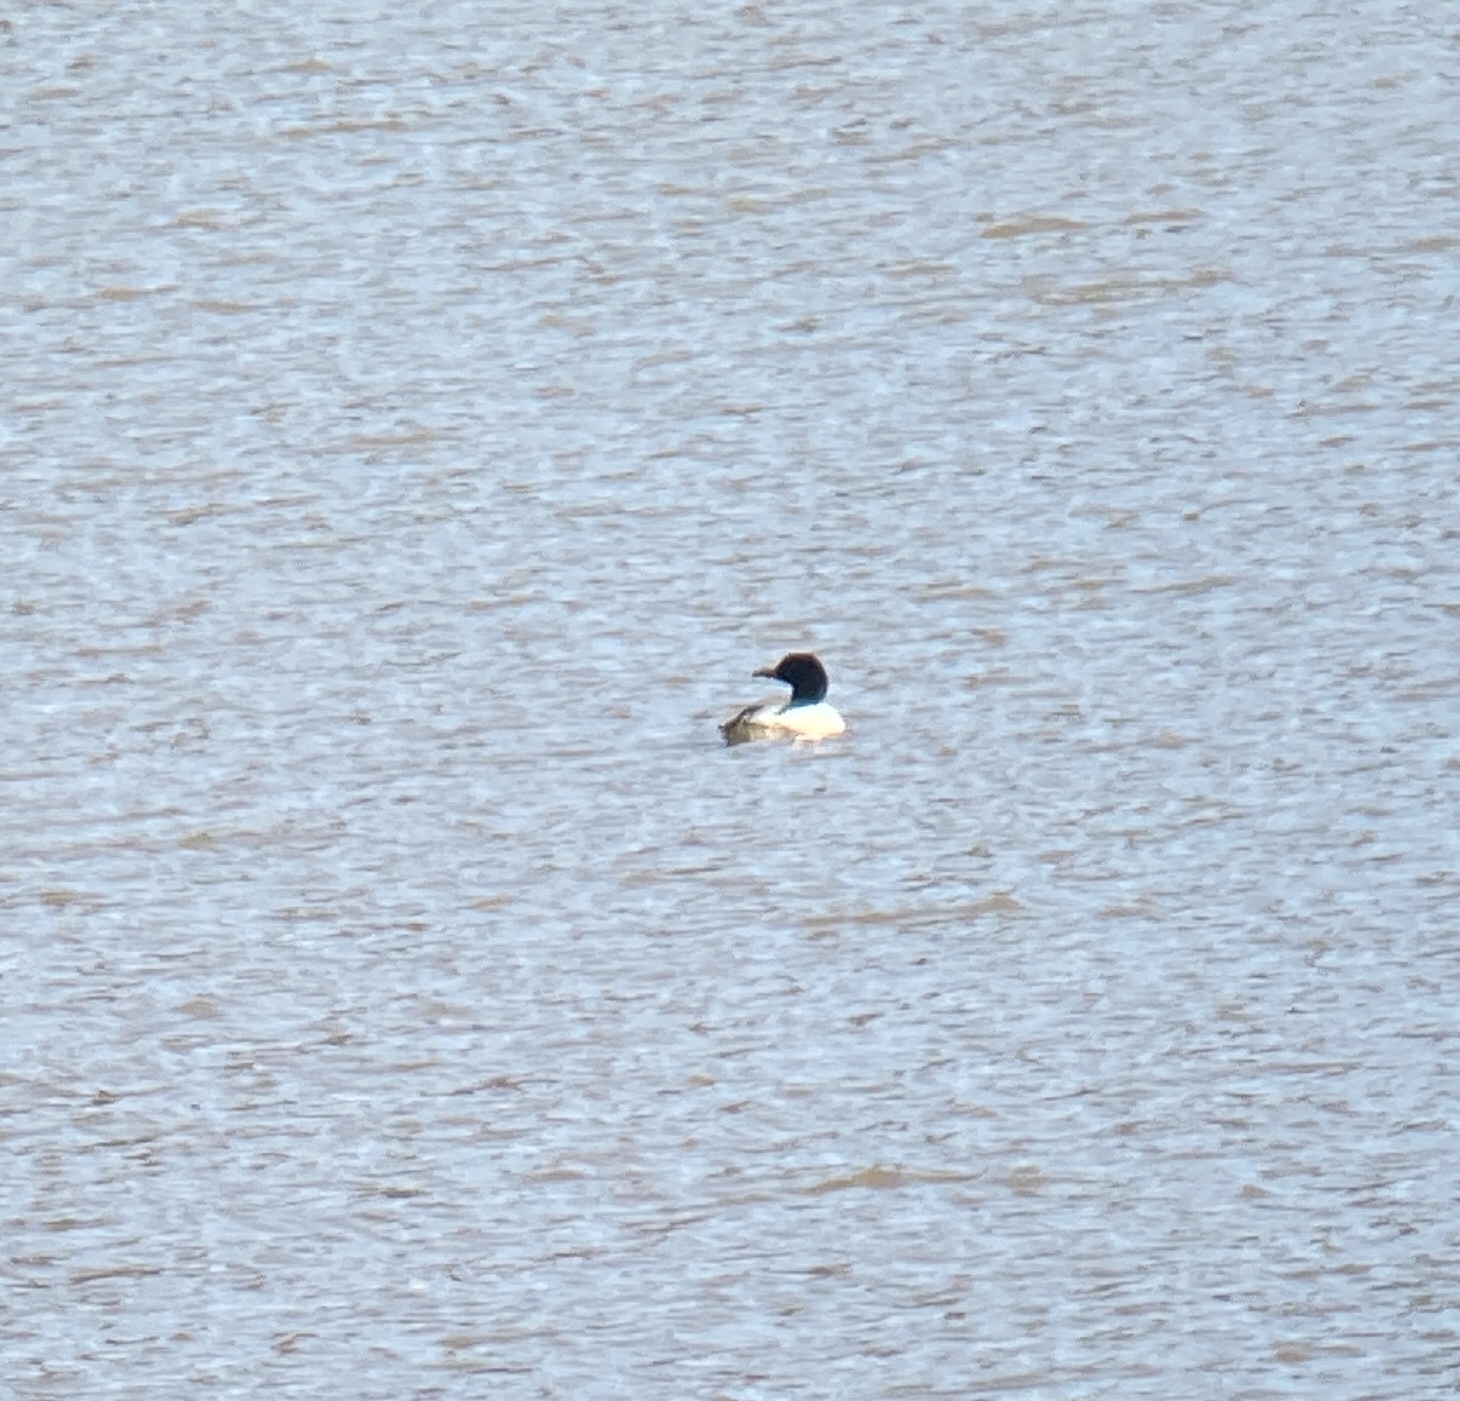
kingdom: Animalia
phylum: Chordata
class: Aves
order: Anseriformes
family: Anatidae
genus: Mergus
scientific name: Mergus merganser
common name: Common merganser
